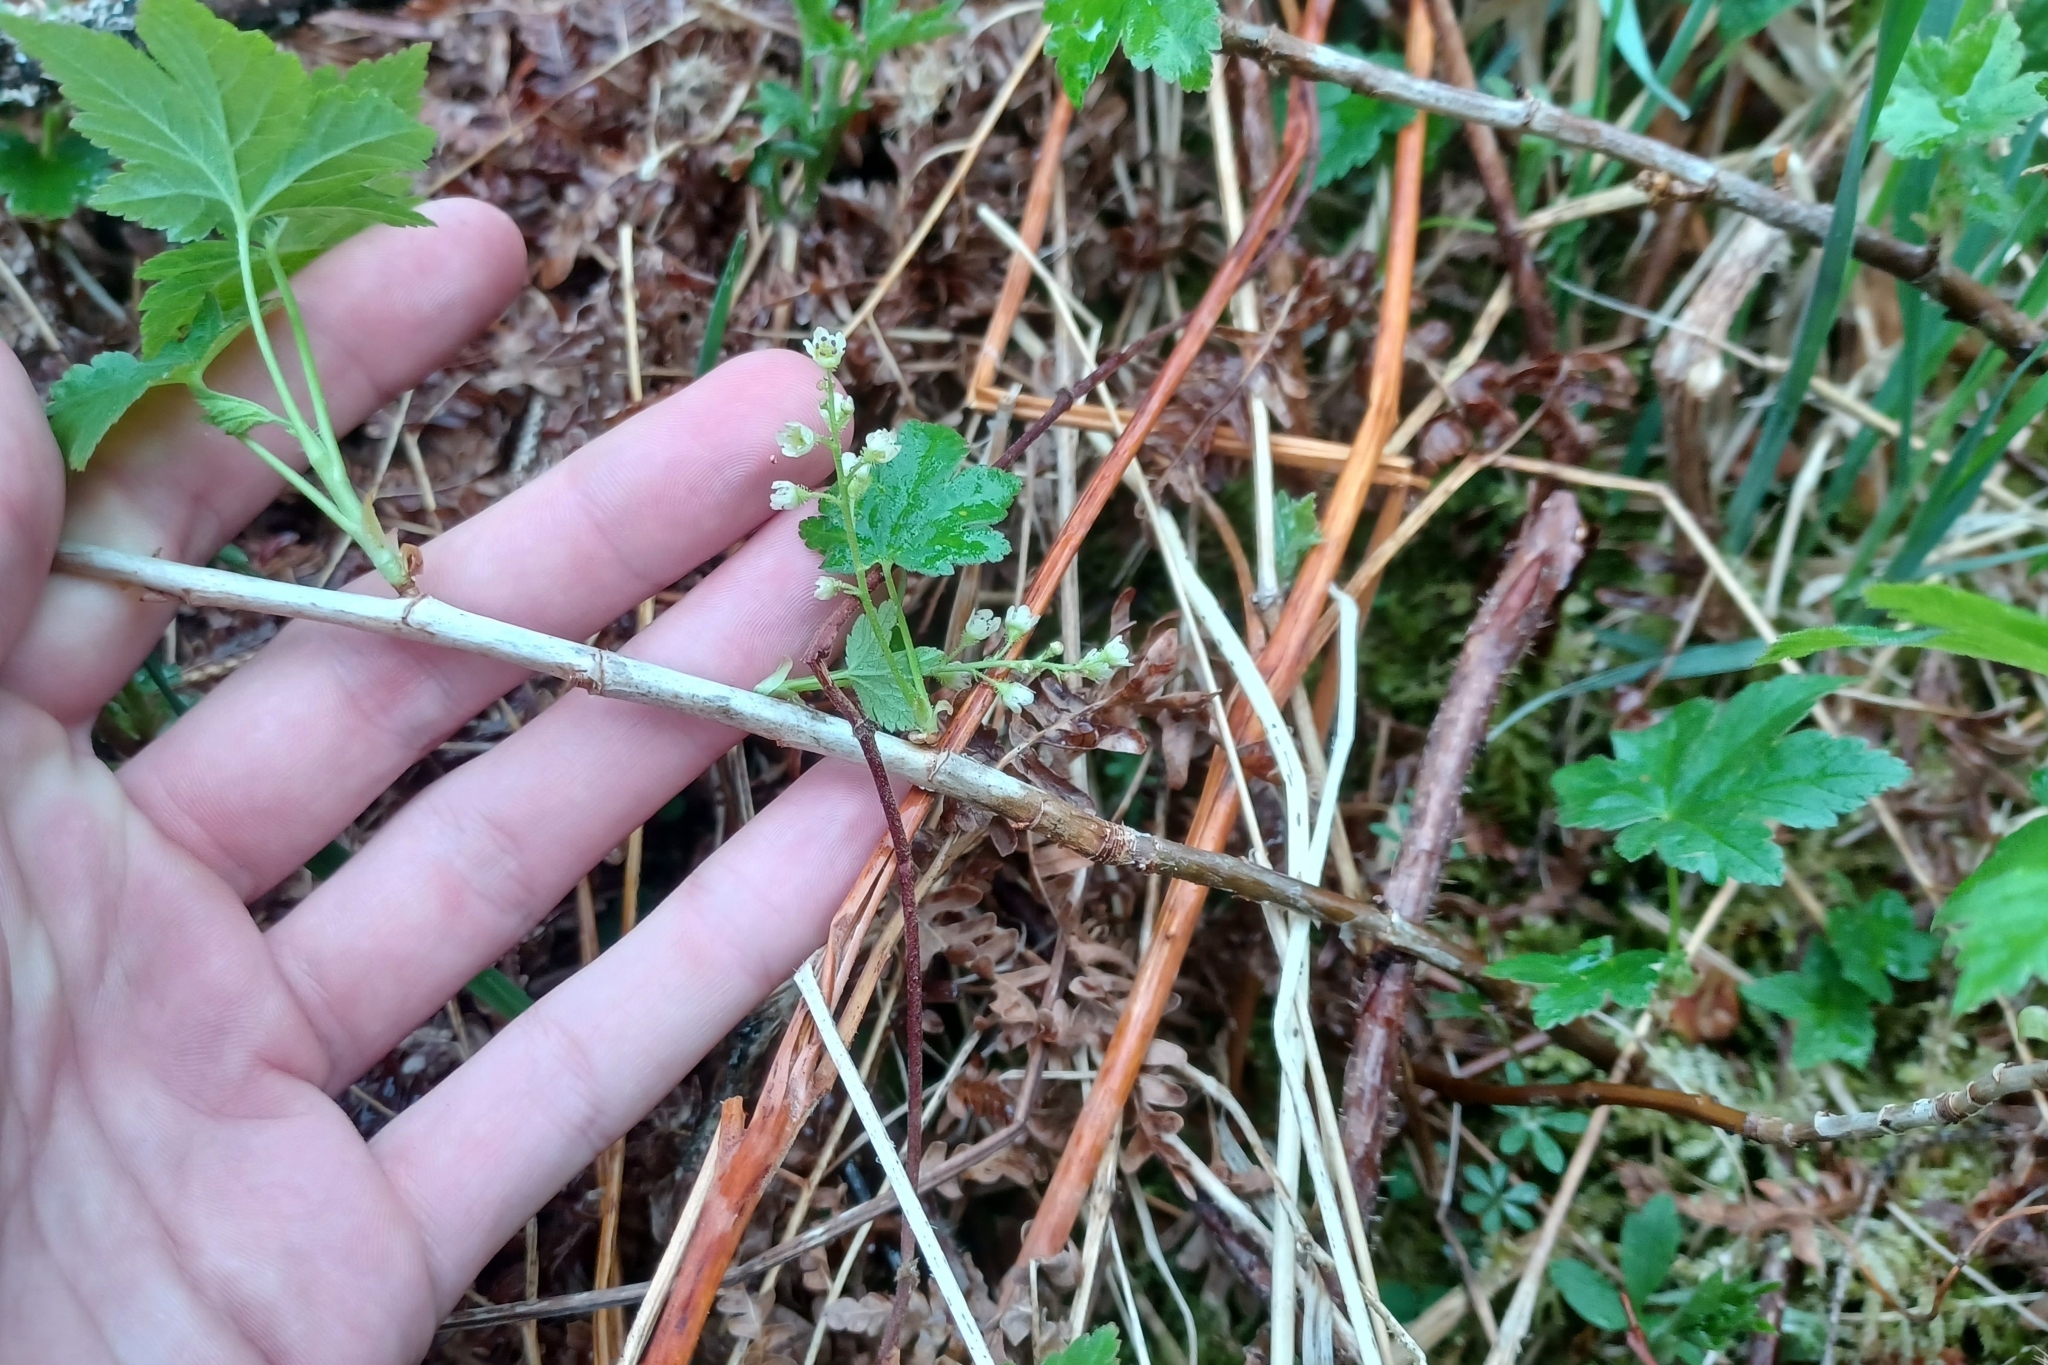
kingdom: Plantae
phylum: Tracheophyta
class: Magnoliopsida
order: Saxifragales
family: Grossulariaceae
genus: Ribes
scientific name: Ribes glandulosum
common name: Skunk currant
